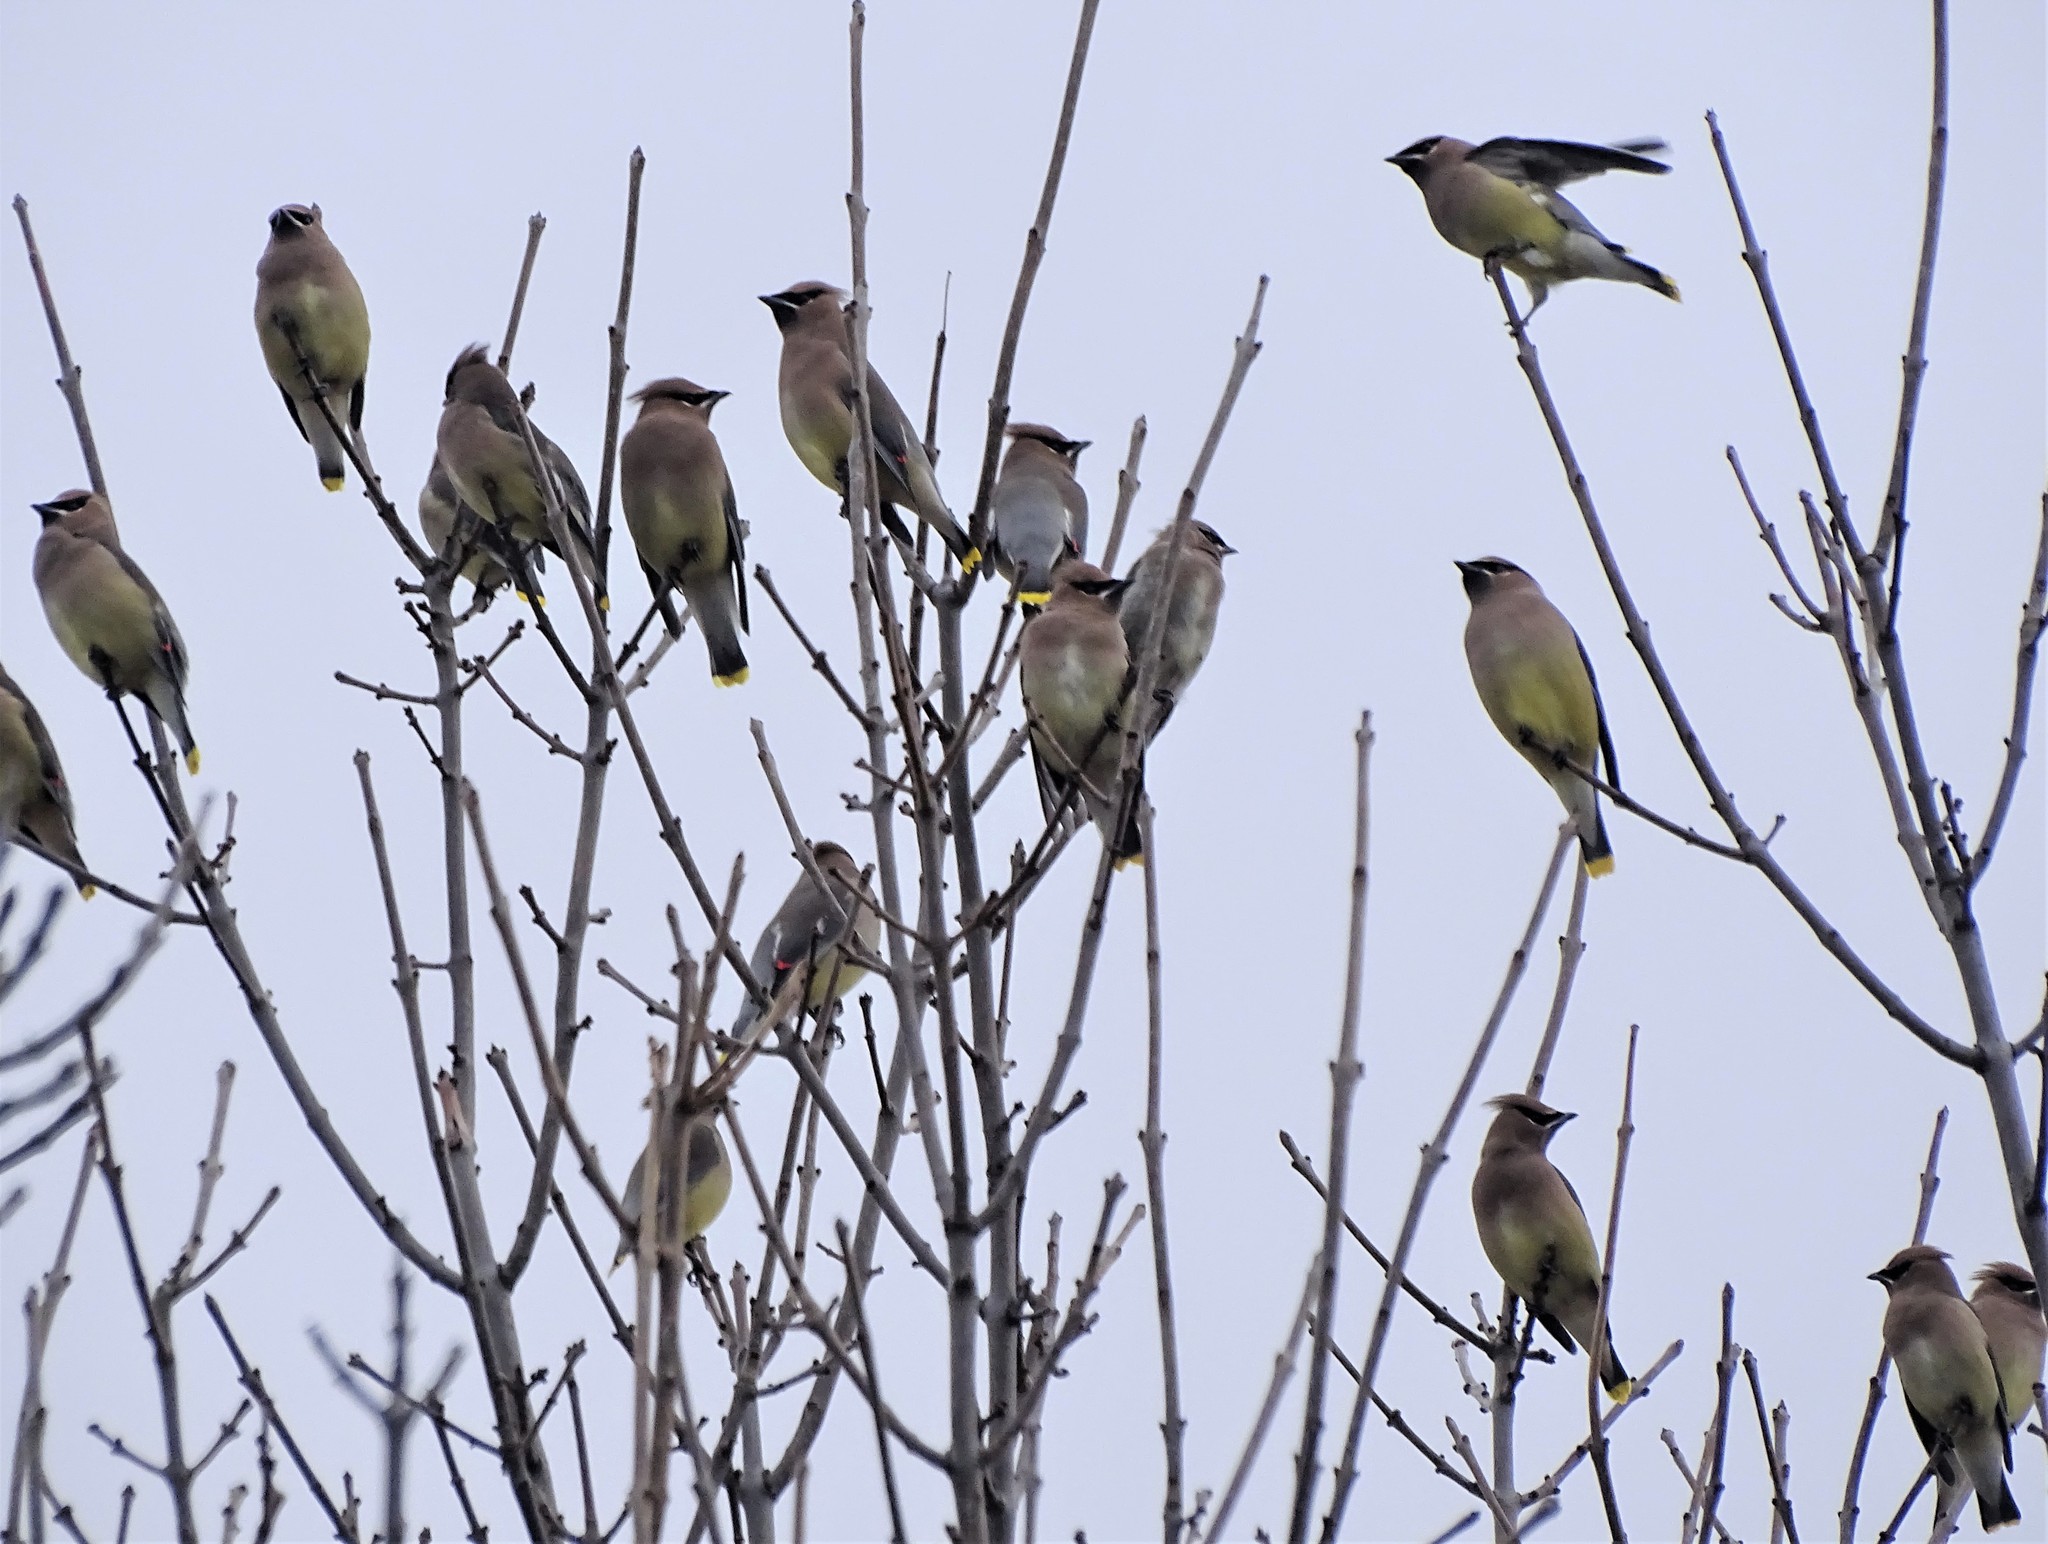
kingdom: Animalia
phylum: Chordata
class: Aves
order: Passeriformes
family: Bombycillidae
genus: Bombycilla
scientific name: Bombycilla cedrorum
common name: Cedar waxwing
